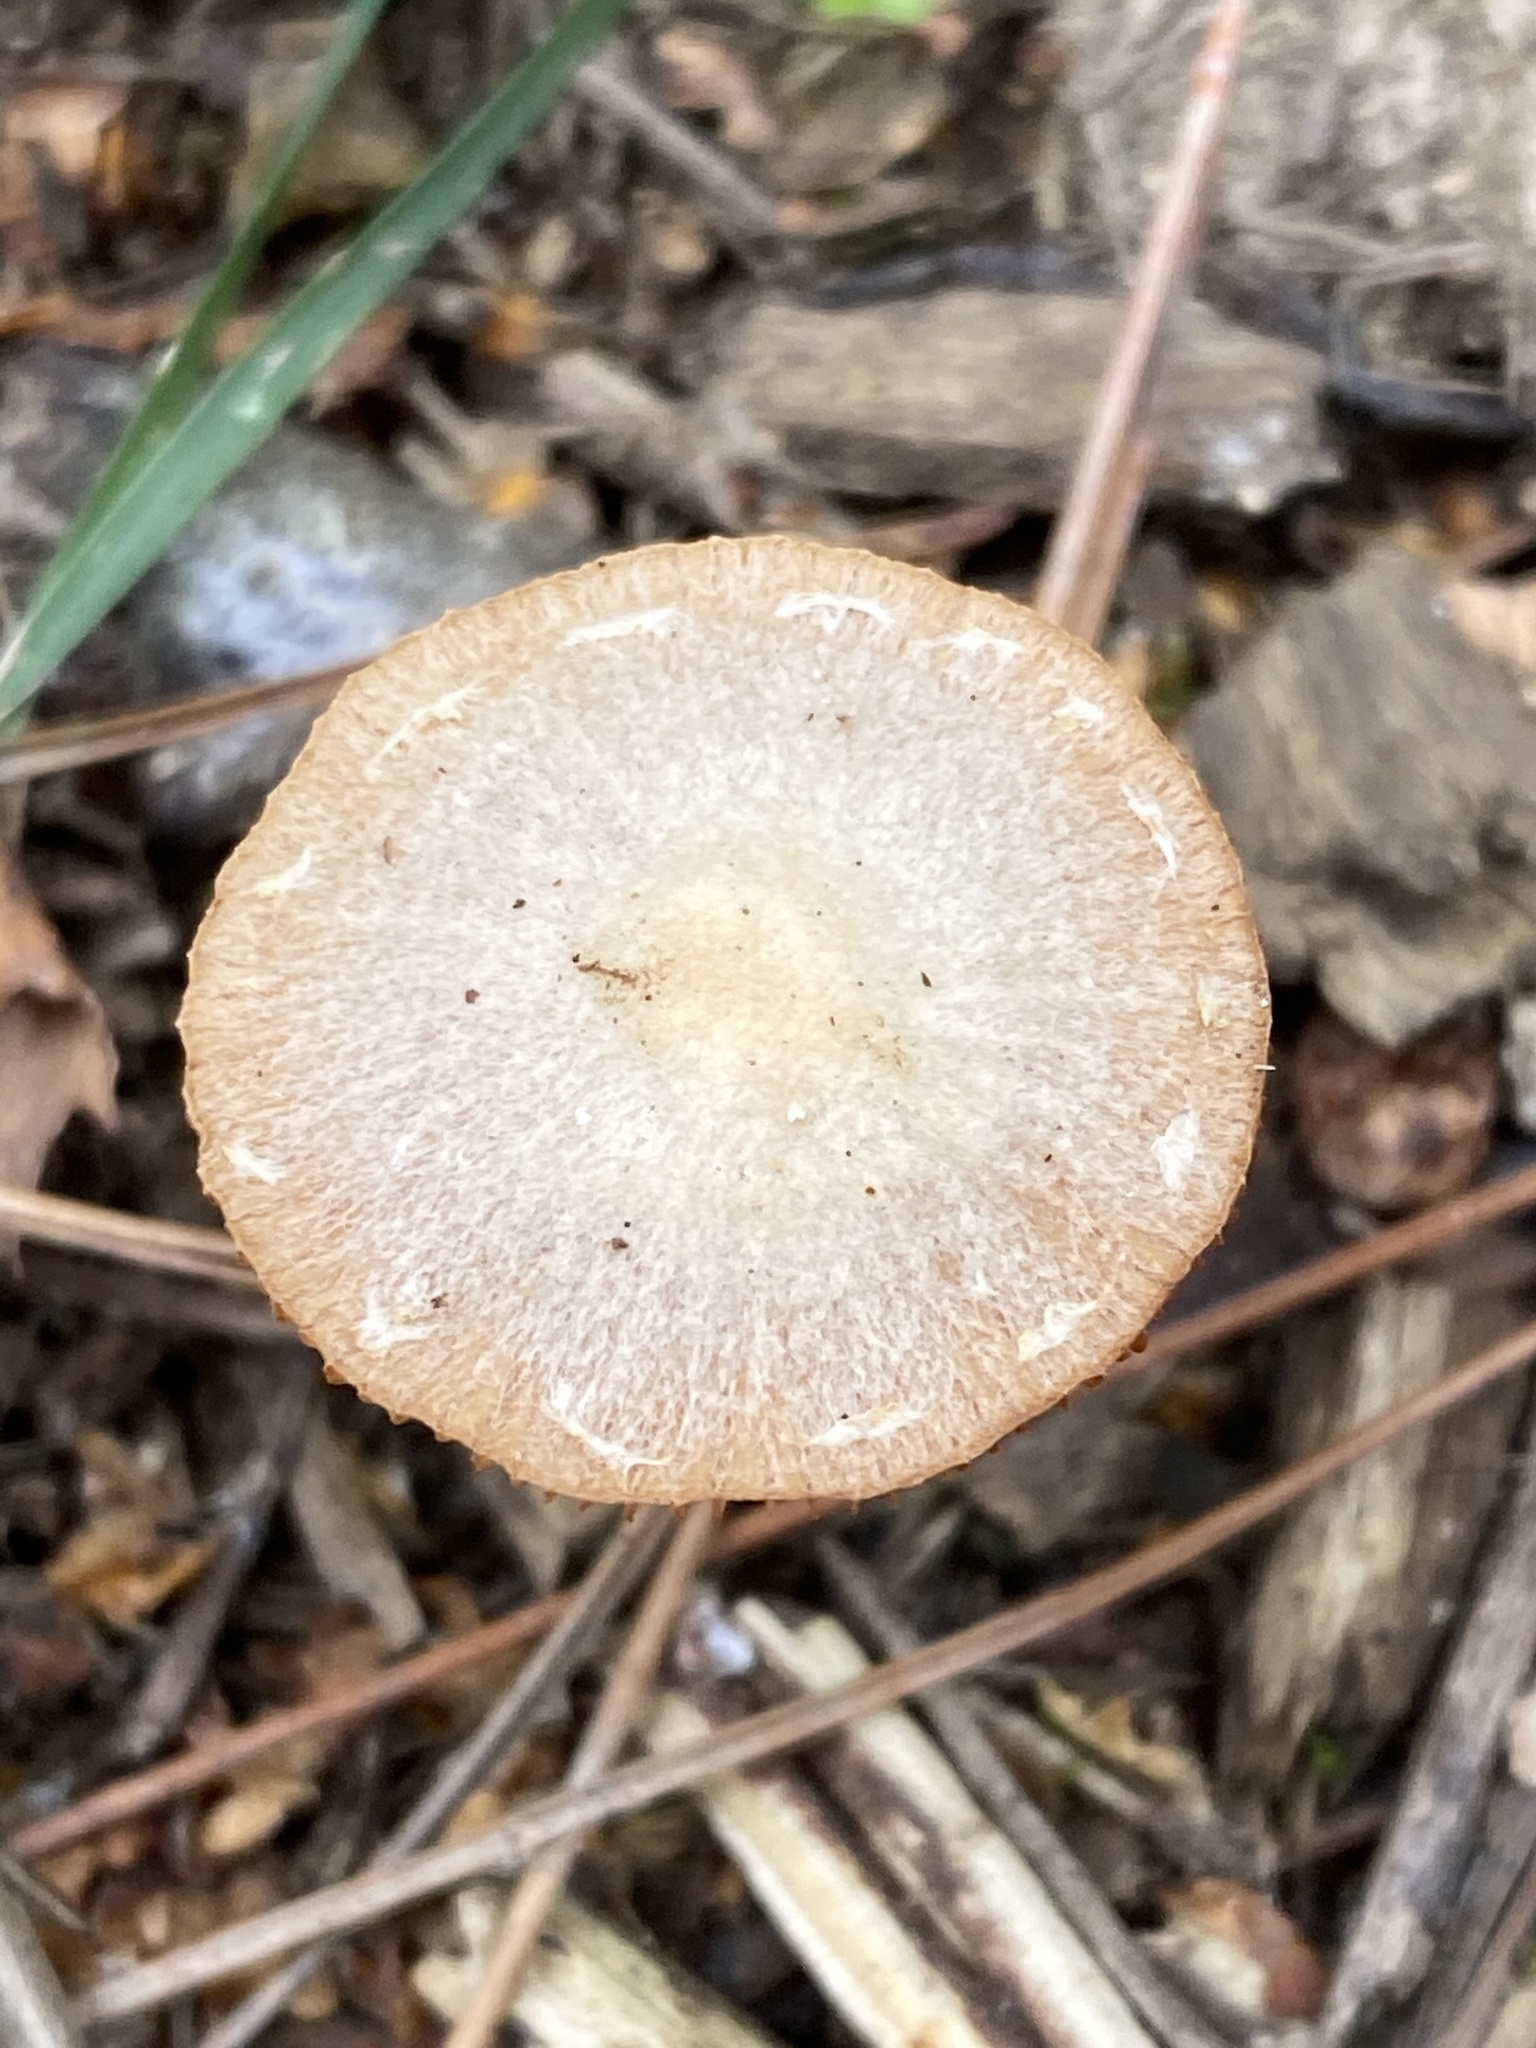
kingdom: Fungi
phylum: Basidiomycota
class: Agaricomycetes
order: Agaricales
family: Tubariaceae
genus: Tubaria
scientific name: Tubaria furfuracea
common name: Scurfy twiglet
